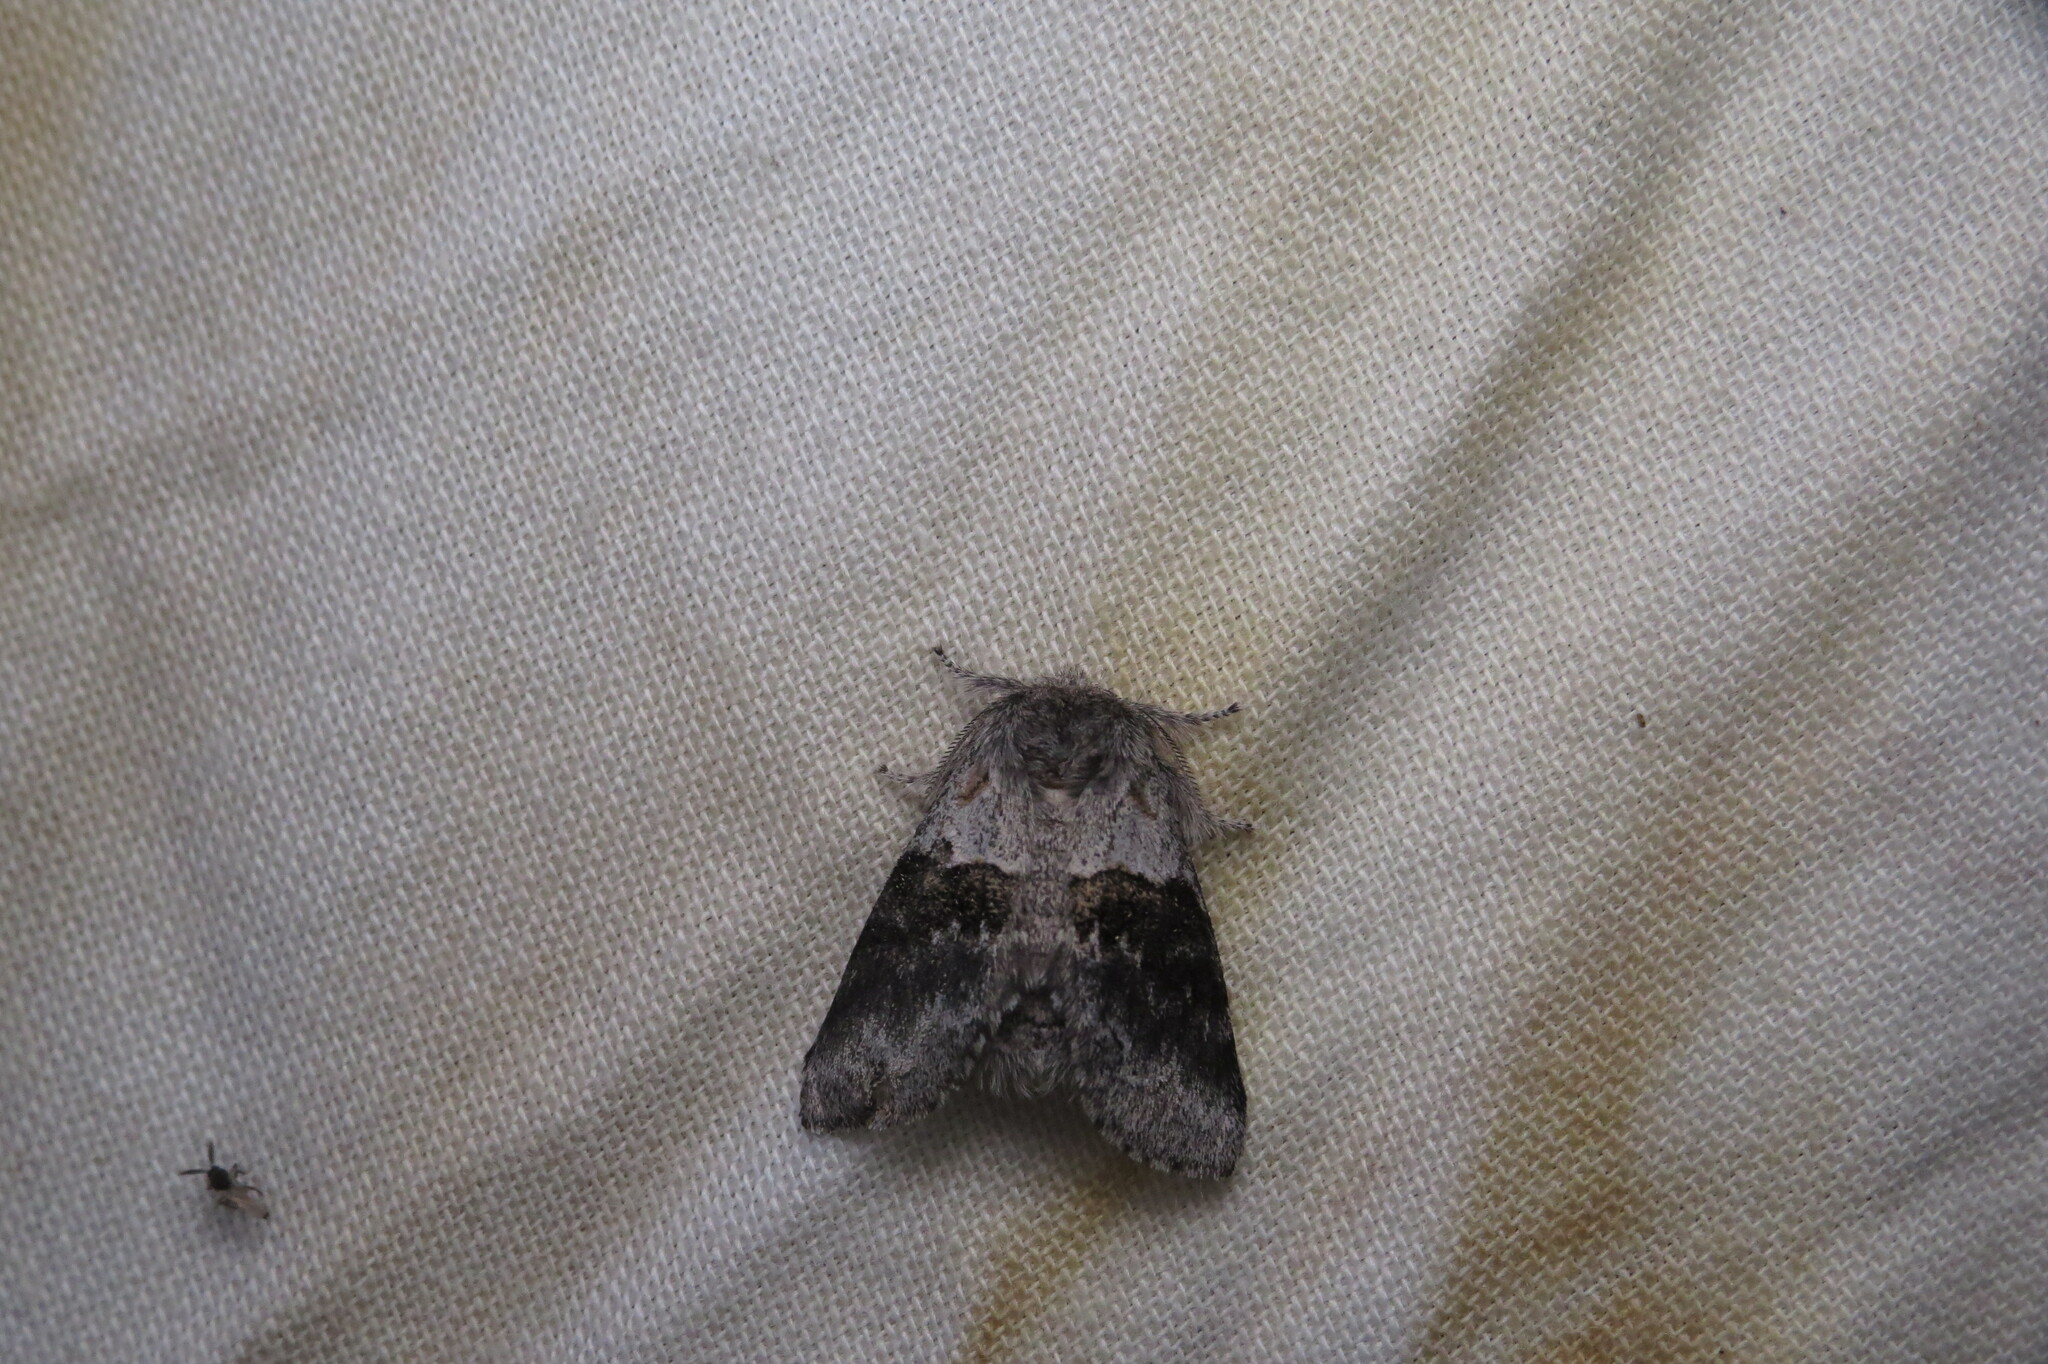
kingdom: Animalia
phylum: Arthropoda
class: Insecta
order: Lepidoptera
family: Notodontidae
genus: Gluphisia
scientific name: Gluphisia septentrionis
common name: Common gluphisia
